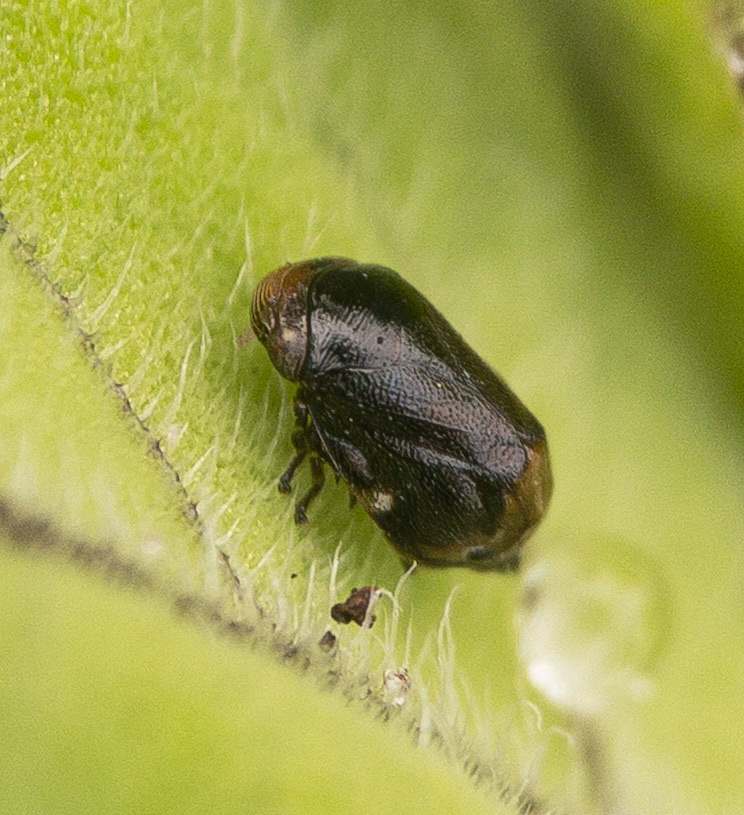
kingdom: Animalia
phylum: Arthropoda
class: Insecta
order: Hemiptera
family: Clastopteridae
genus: Clastoptera
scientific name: Clastoptera xanthocephala
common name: Sunflower spittlebug
